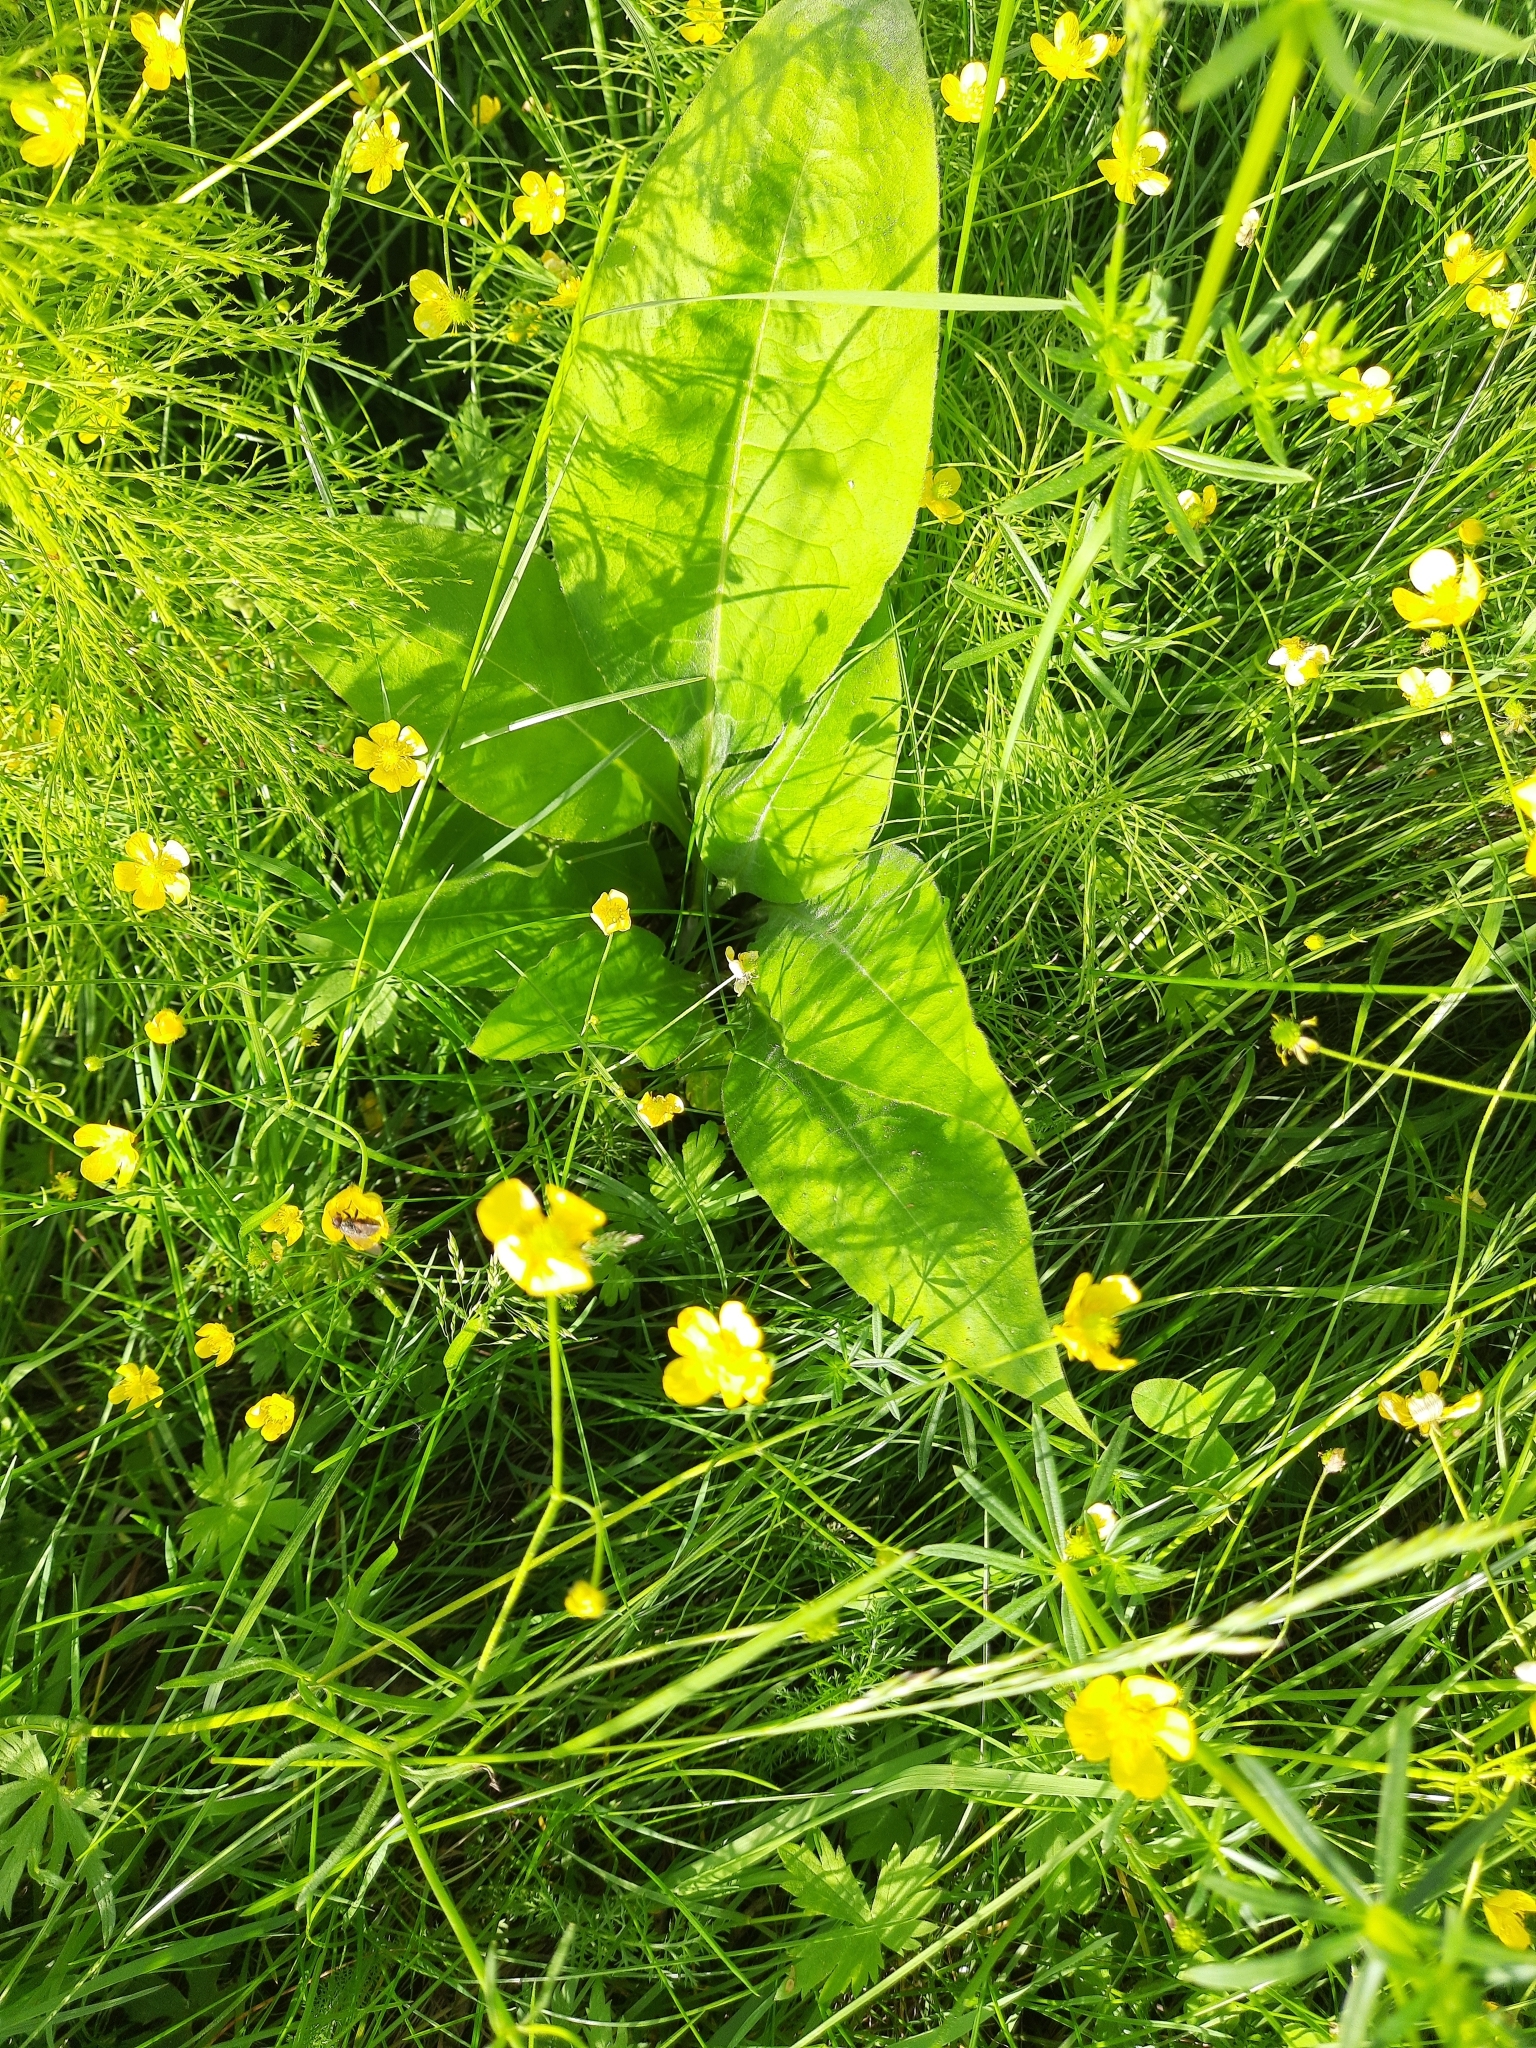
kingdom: Plantae
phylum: Tracheophyta
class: Magnoliopsida
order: Boraginales
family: Boraginaceae
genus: Pulmonaria
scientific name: Pulmonaria mollis
